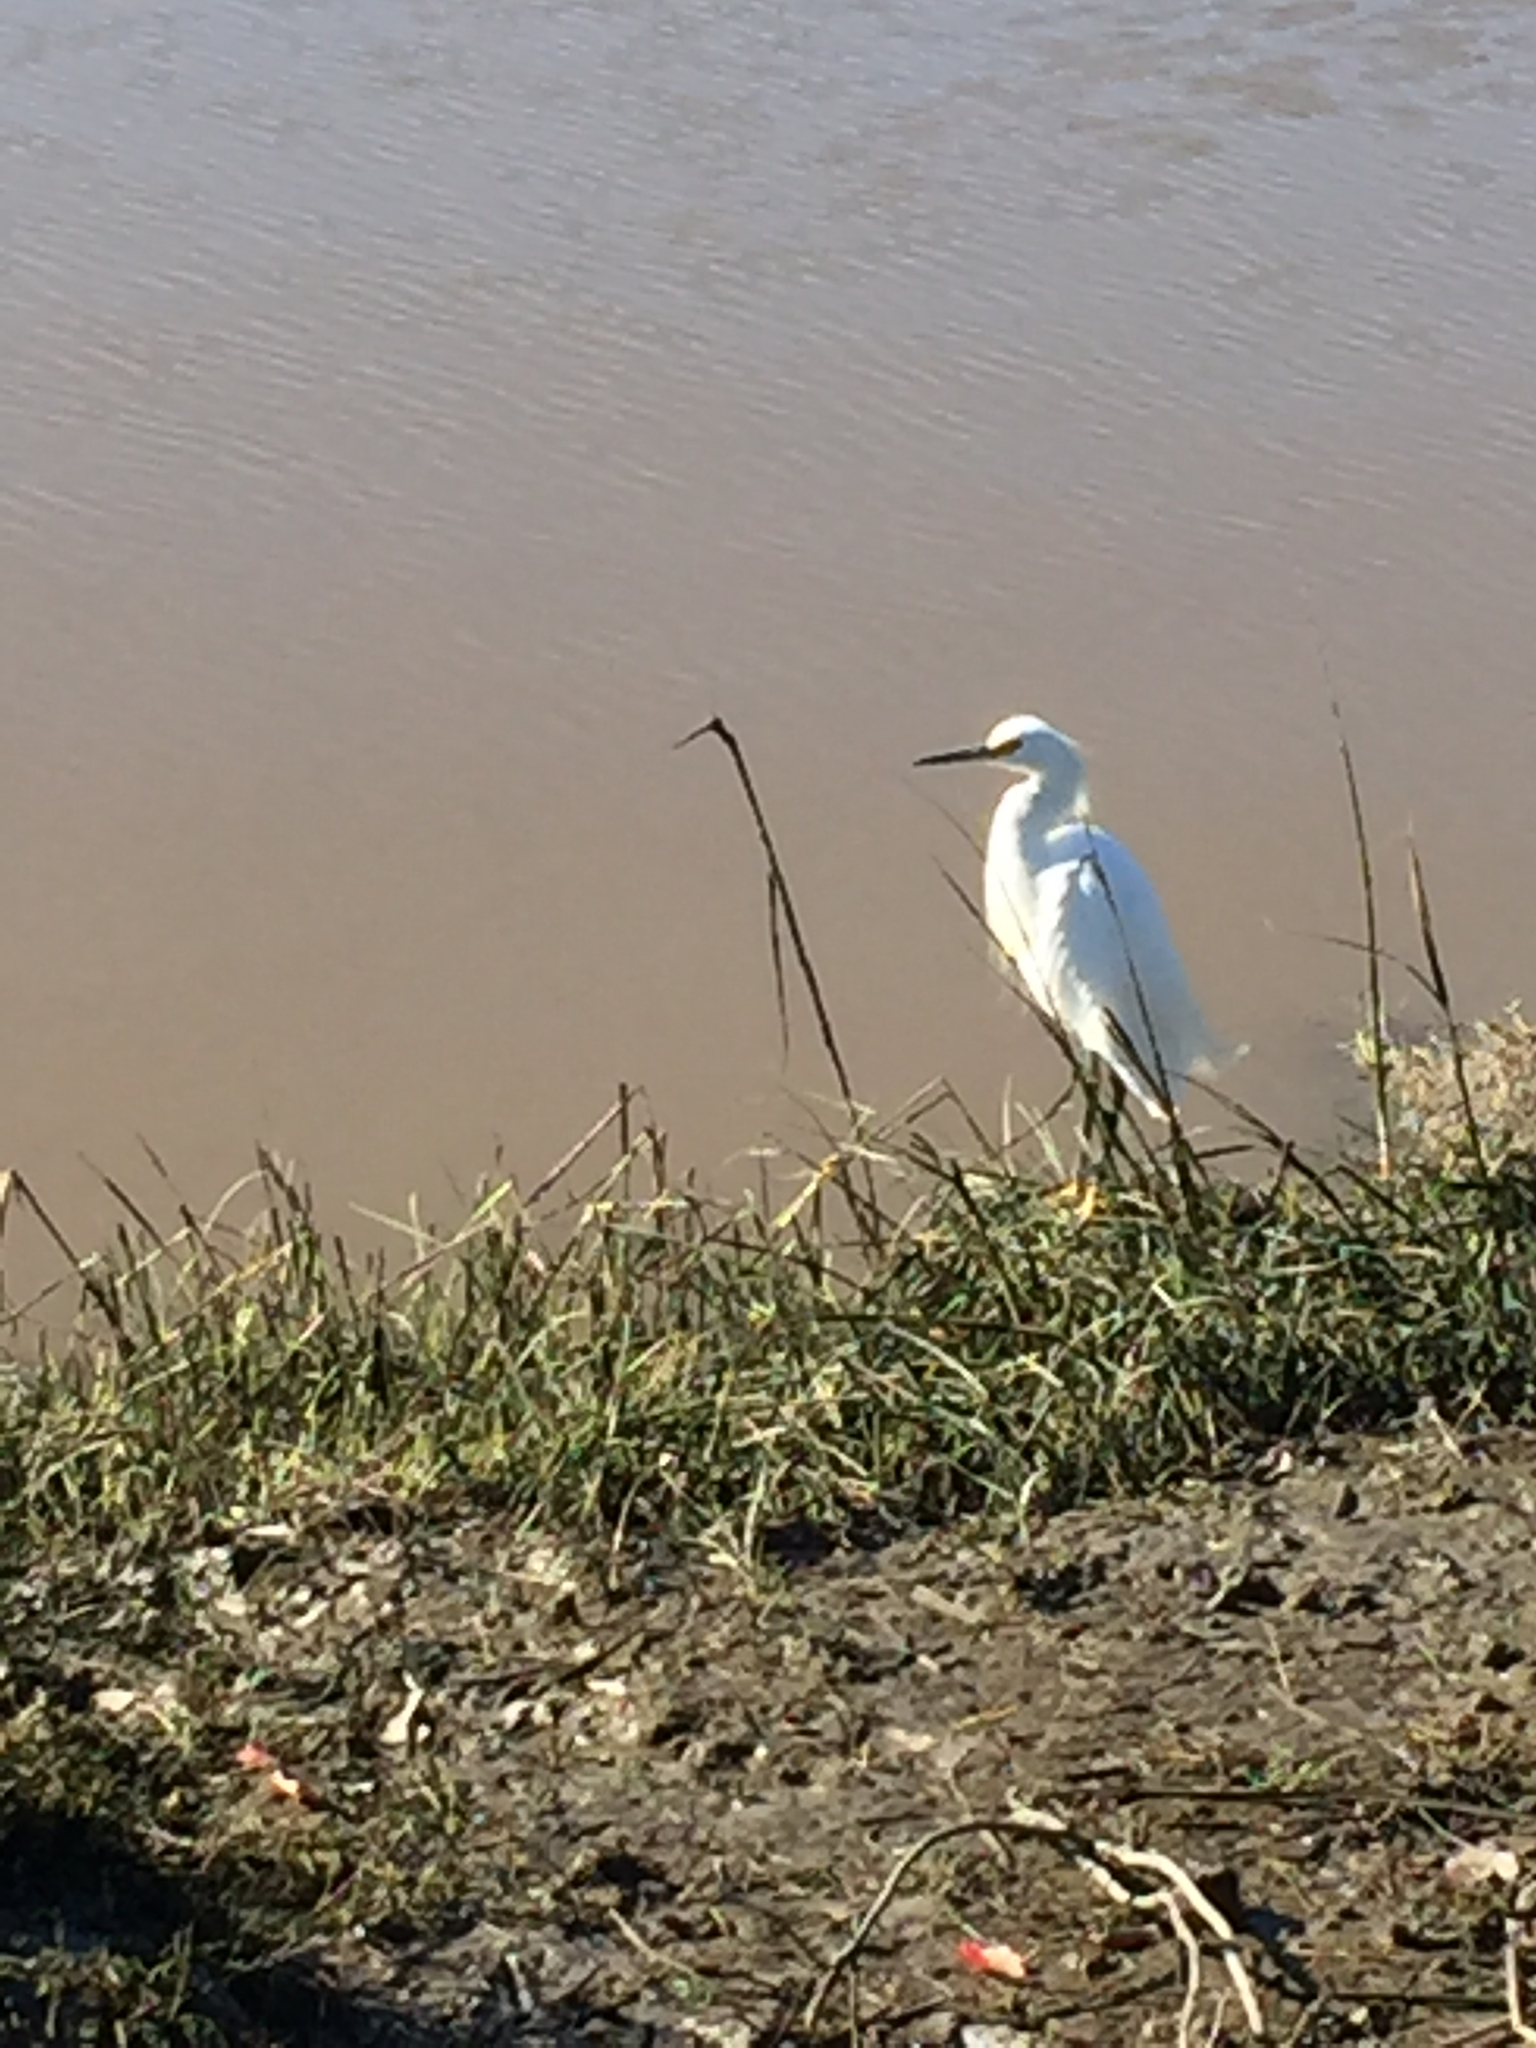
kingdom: Animalia
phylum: Chordata
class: Aves
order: Pelecaniformes
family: Ardeidae
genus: Egretta
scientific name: Egretta thula
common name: Snowy egret
